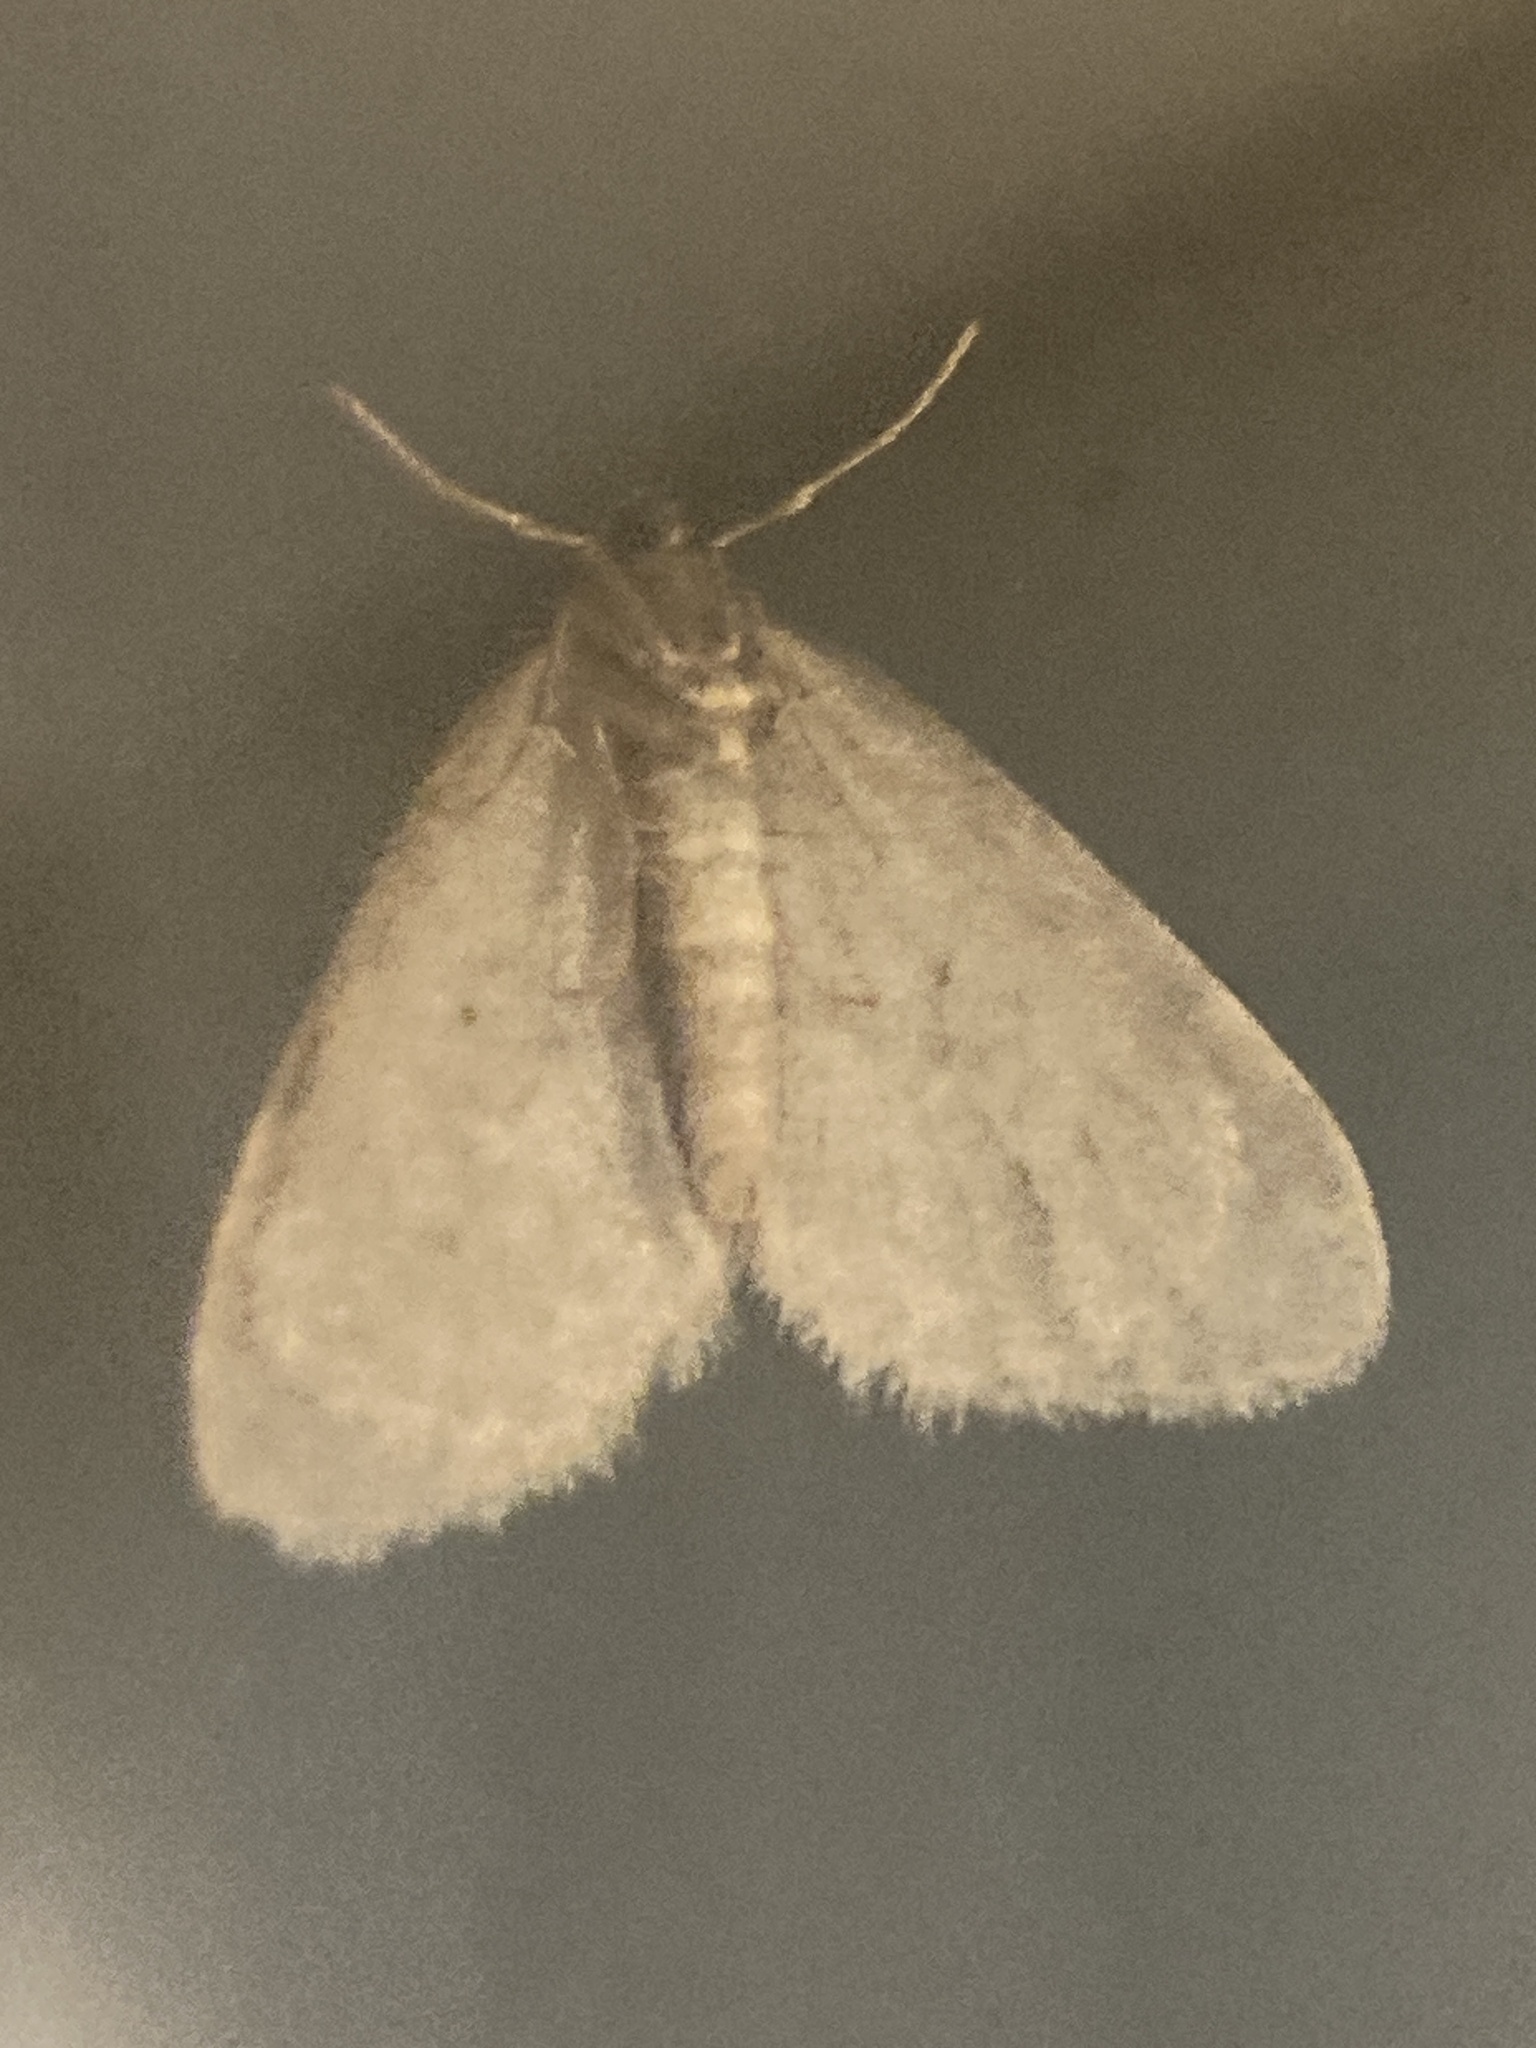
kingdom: Animalia
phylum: Arthropoda
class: Insecta
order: Lepidoptera
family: Geometridae
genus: Operophtera
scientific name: Operophtera brumata
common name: Winter moth
